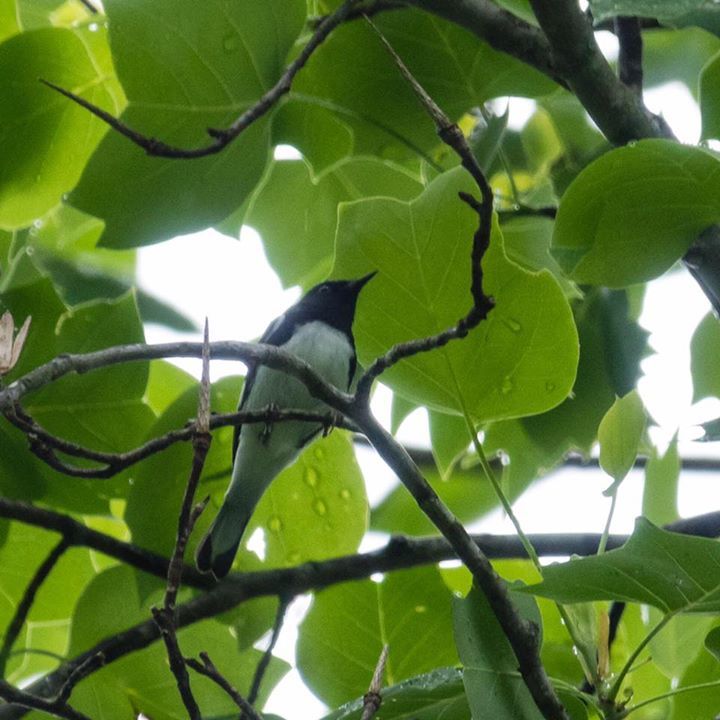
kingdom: Animalia
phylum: Chordata
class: Aves
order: Passeriformes
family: Parulidae
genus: Setophaga
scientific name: Setophaga caerulescens
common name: Black-throated blue warbler
